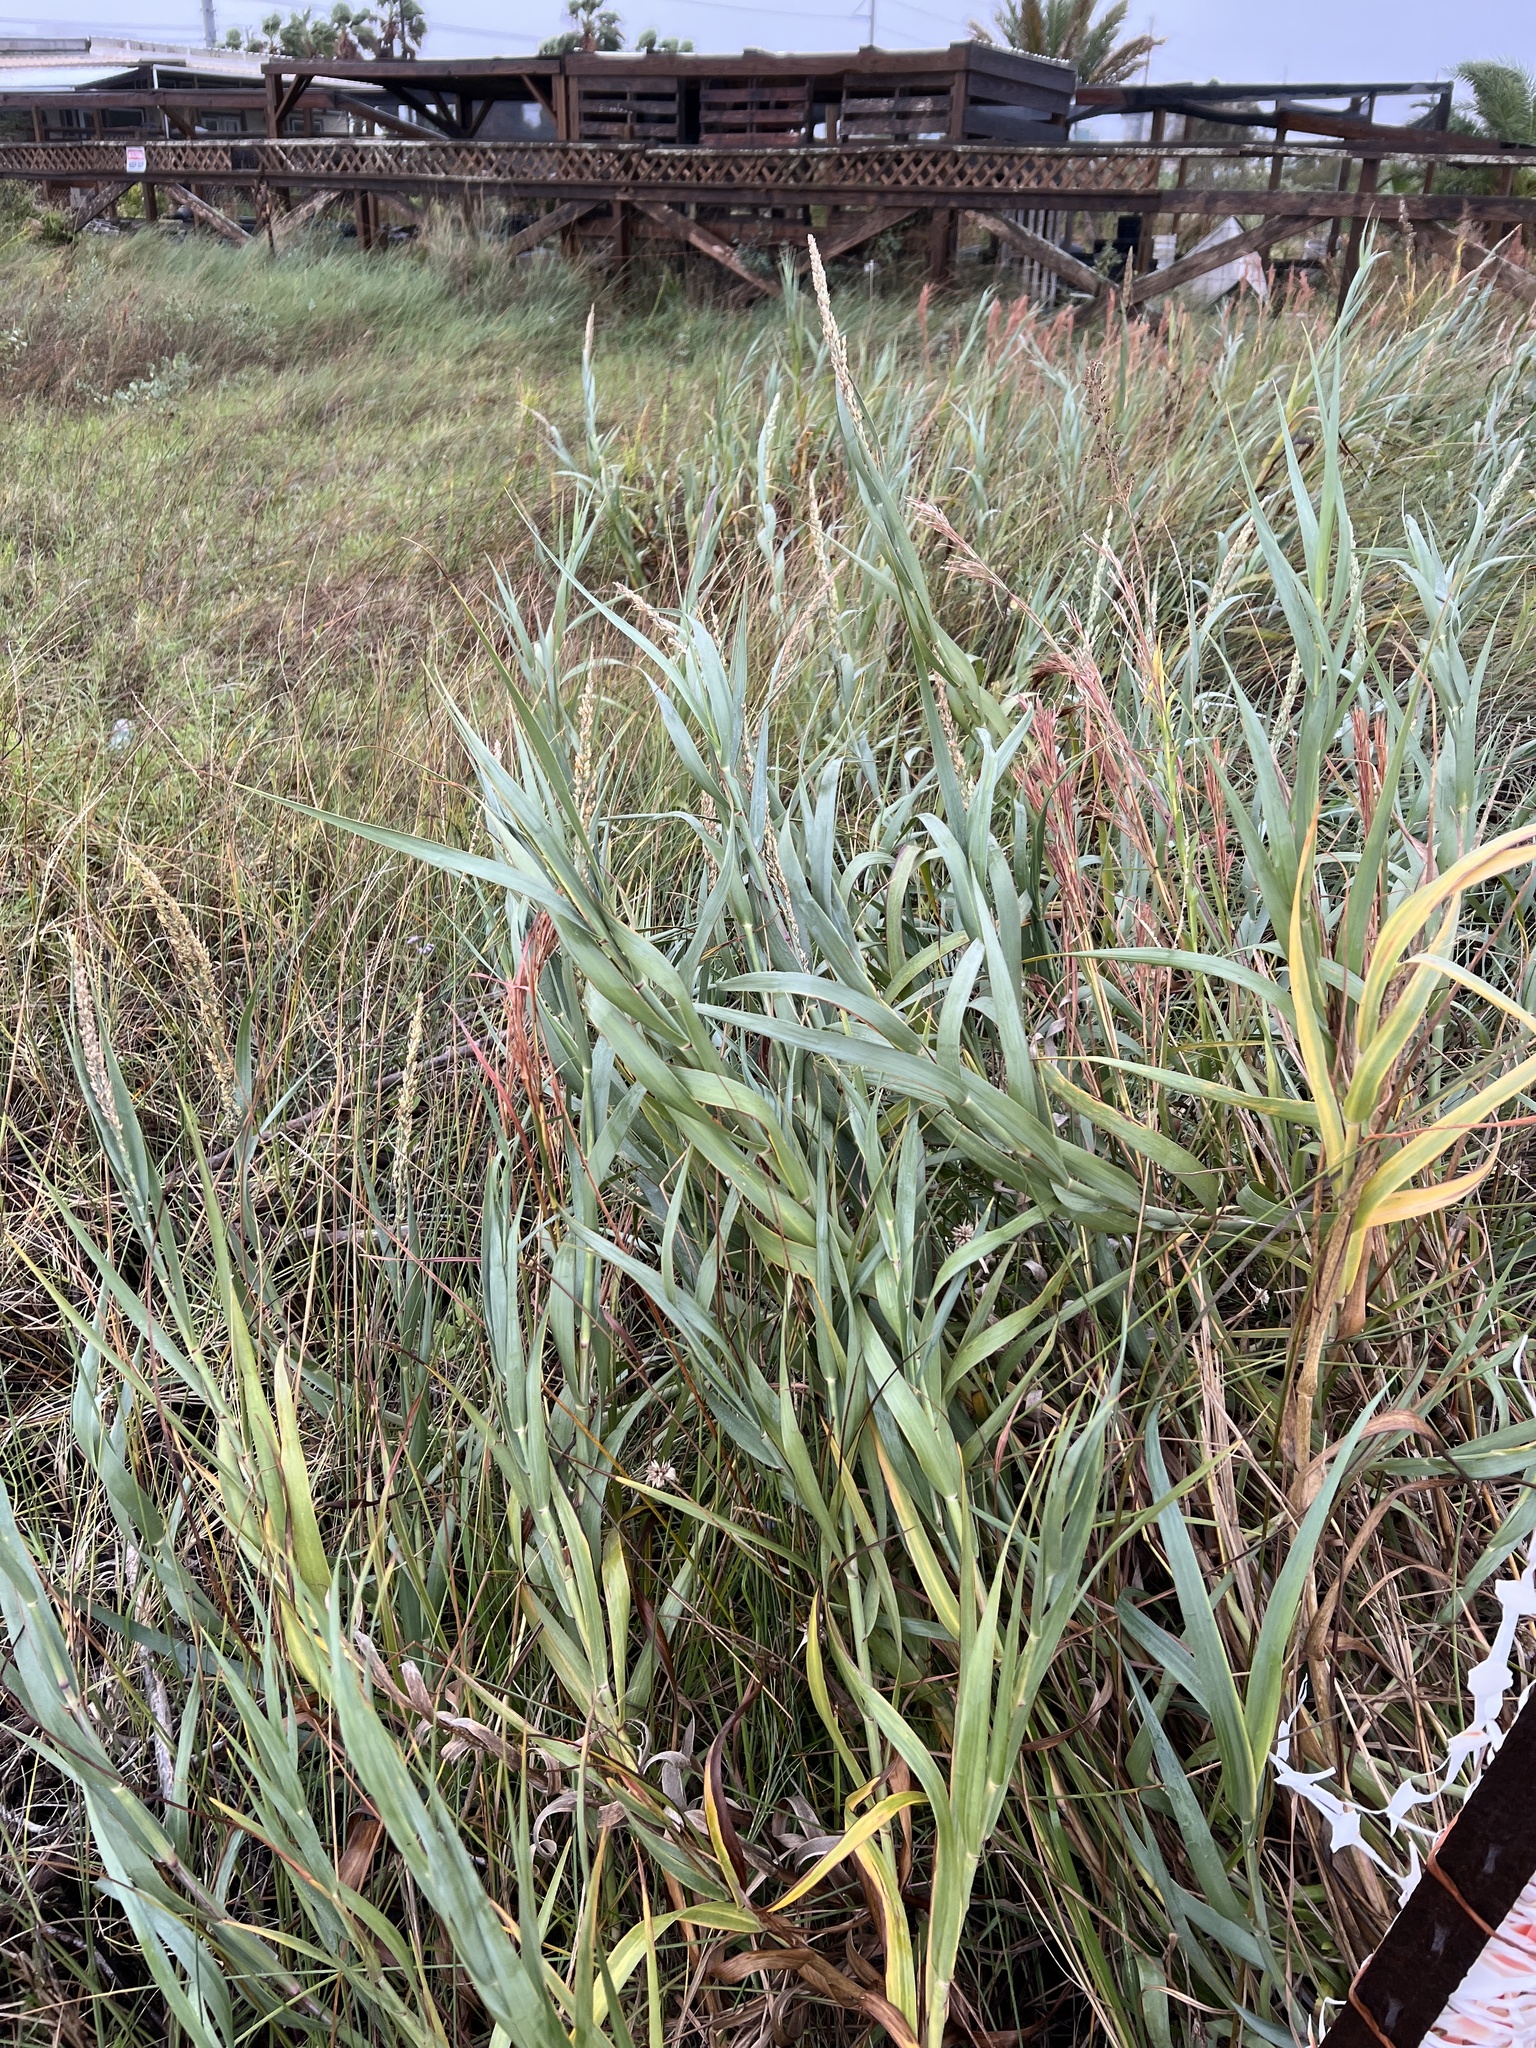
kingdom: Plantae
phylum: Tracheophyta
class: Liliopsida
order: Poales
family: Poaceae
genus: Panicum
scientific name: Panicum amarum
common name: Bitter panicum
